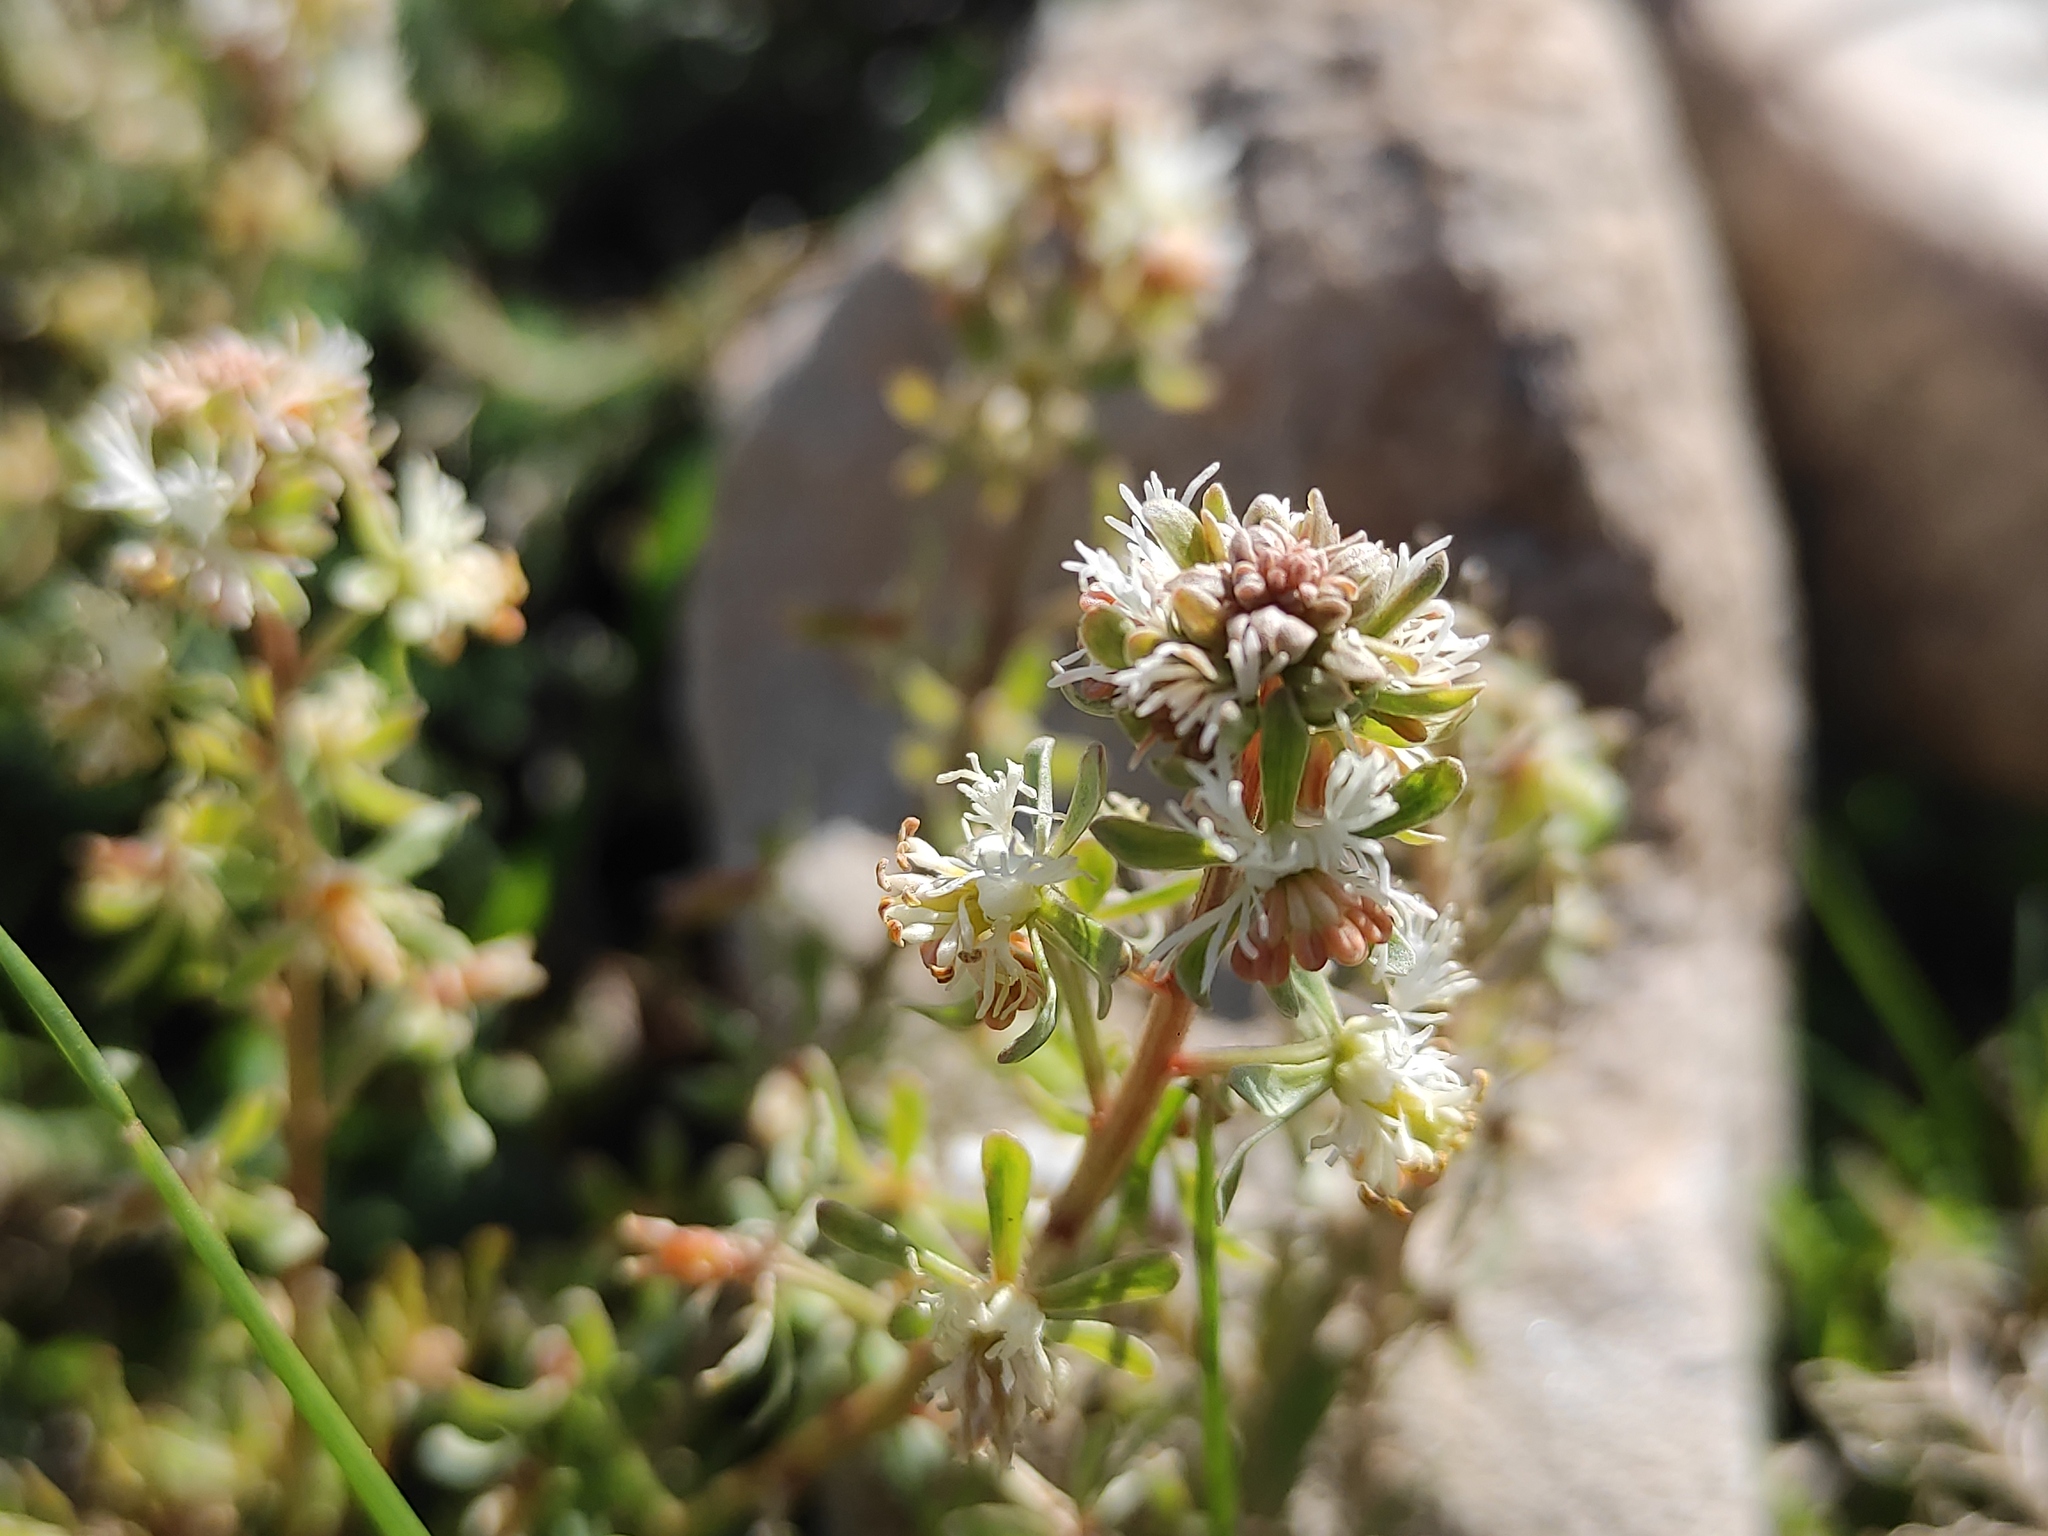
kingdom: Plantae
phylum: Tracheophyta
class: Magnoliopsida
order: Brassicales
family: Resedaceae
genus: Reseda
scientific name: Reseda phyteuma
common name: Corn mignonette
